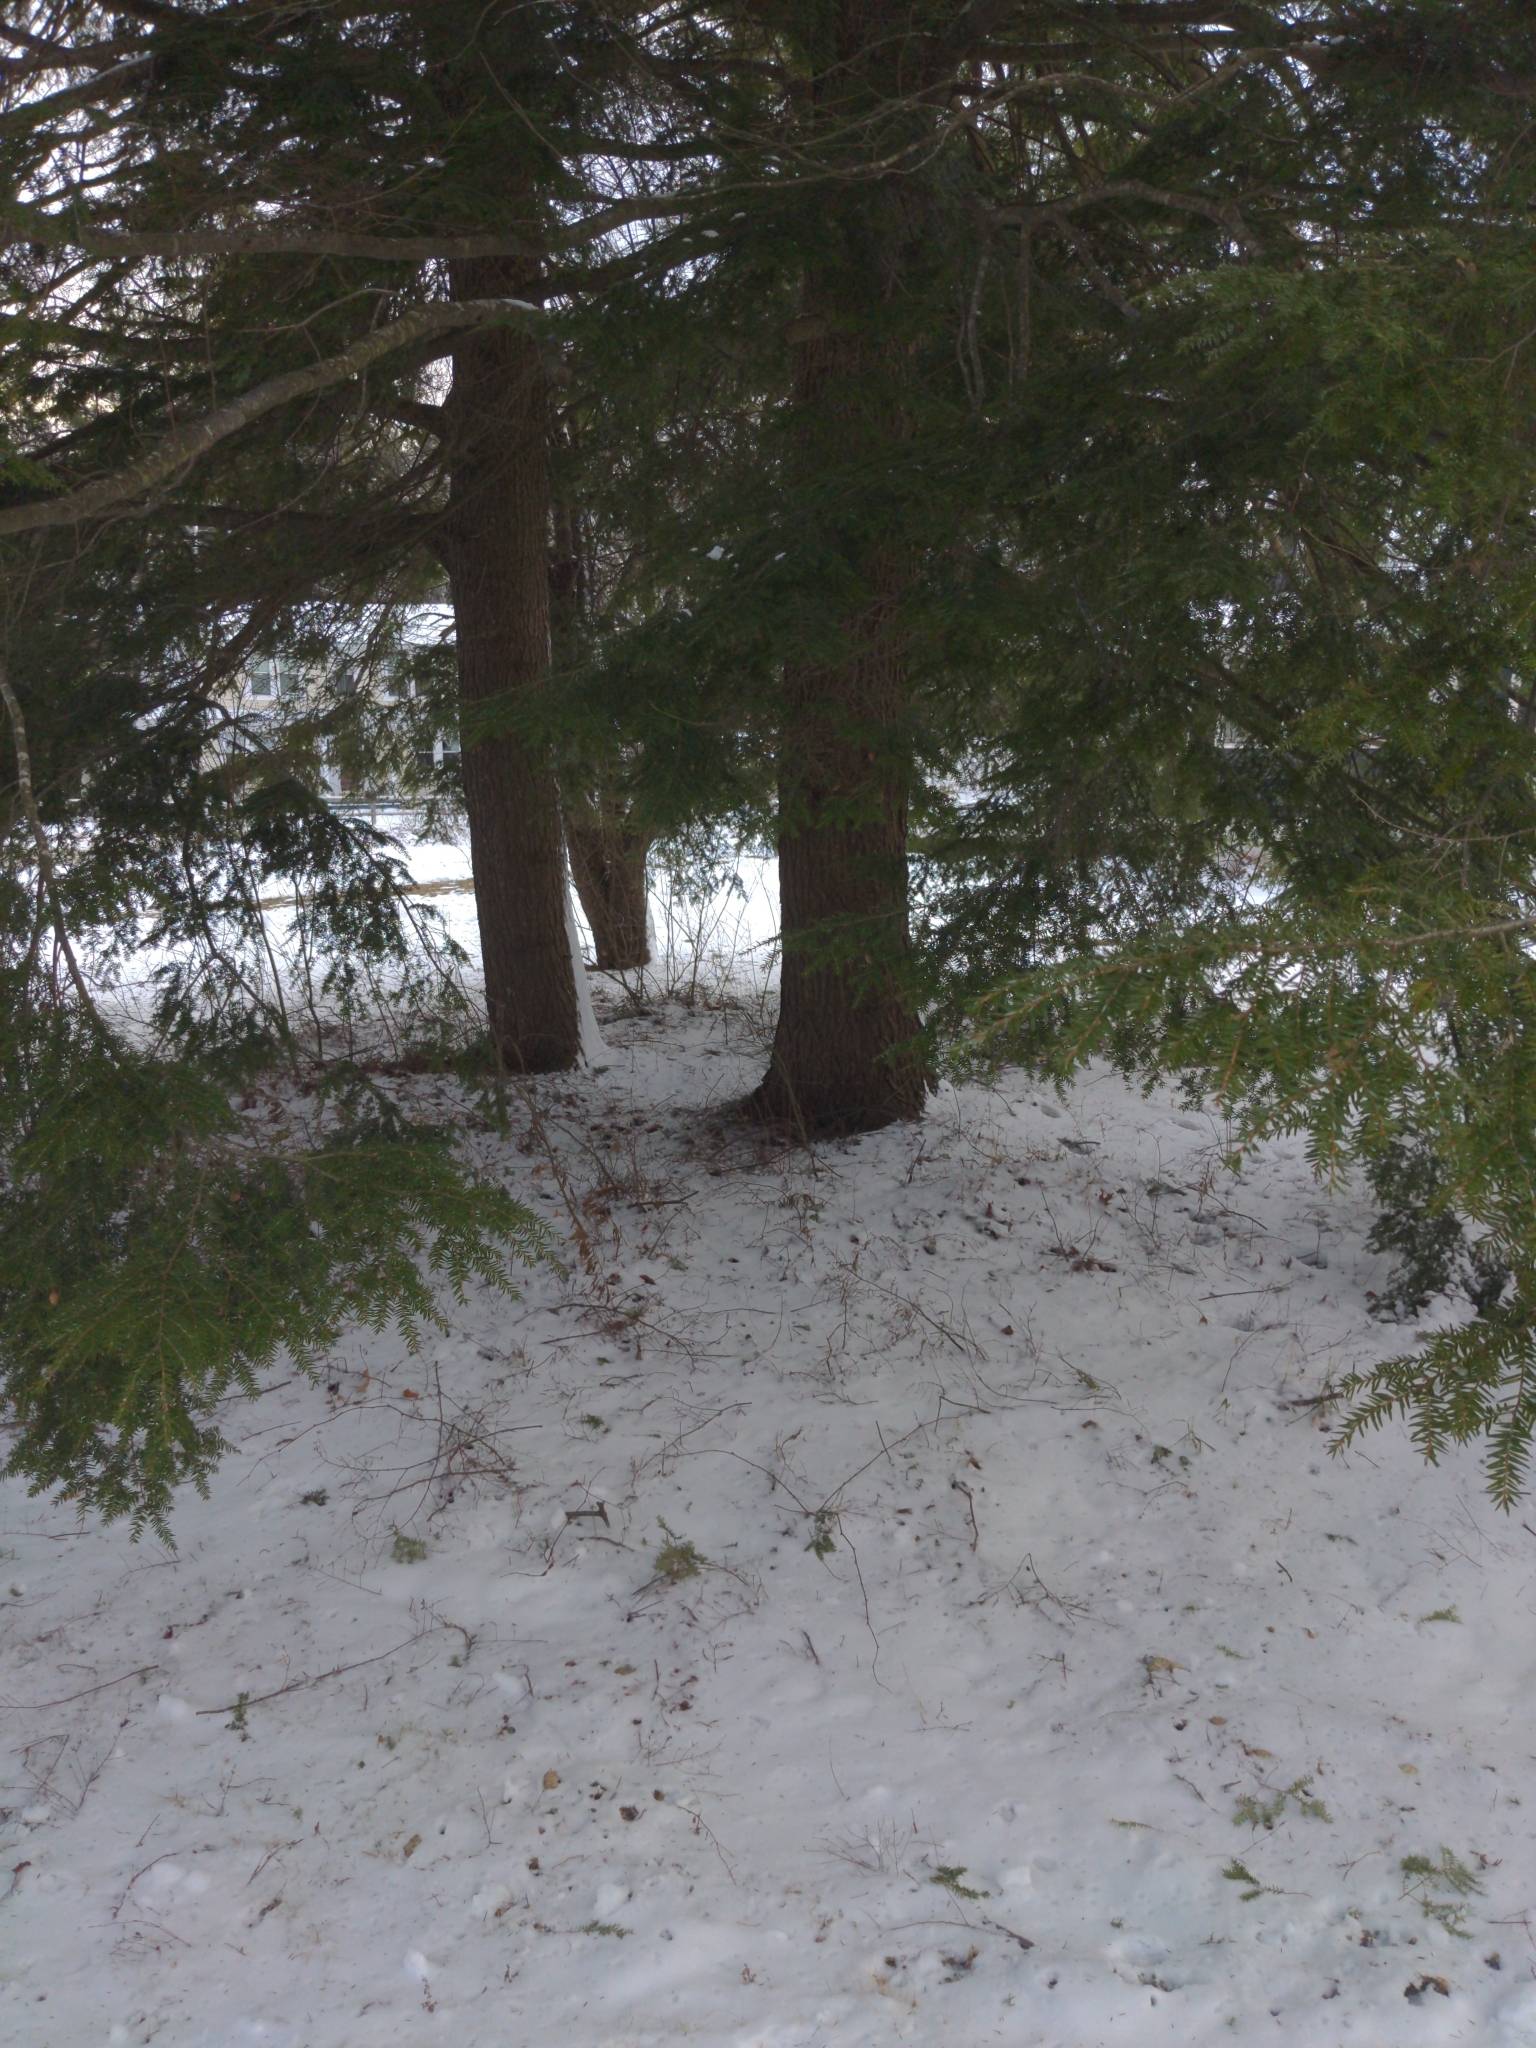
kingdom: Plantae
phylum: Tracheophyta
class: Pinopsida
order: Pinales
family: Pinaceae
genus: Tsuga
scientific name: Tsuga canadensis
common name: Eastern hemlock
